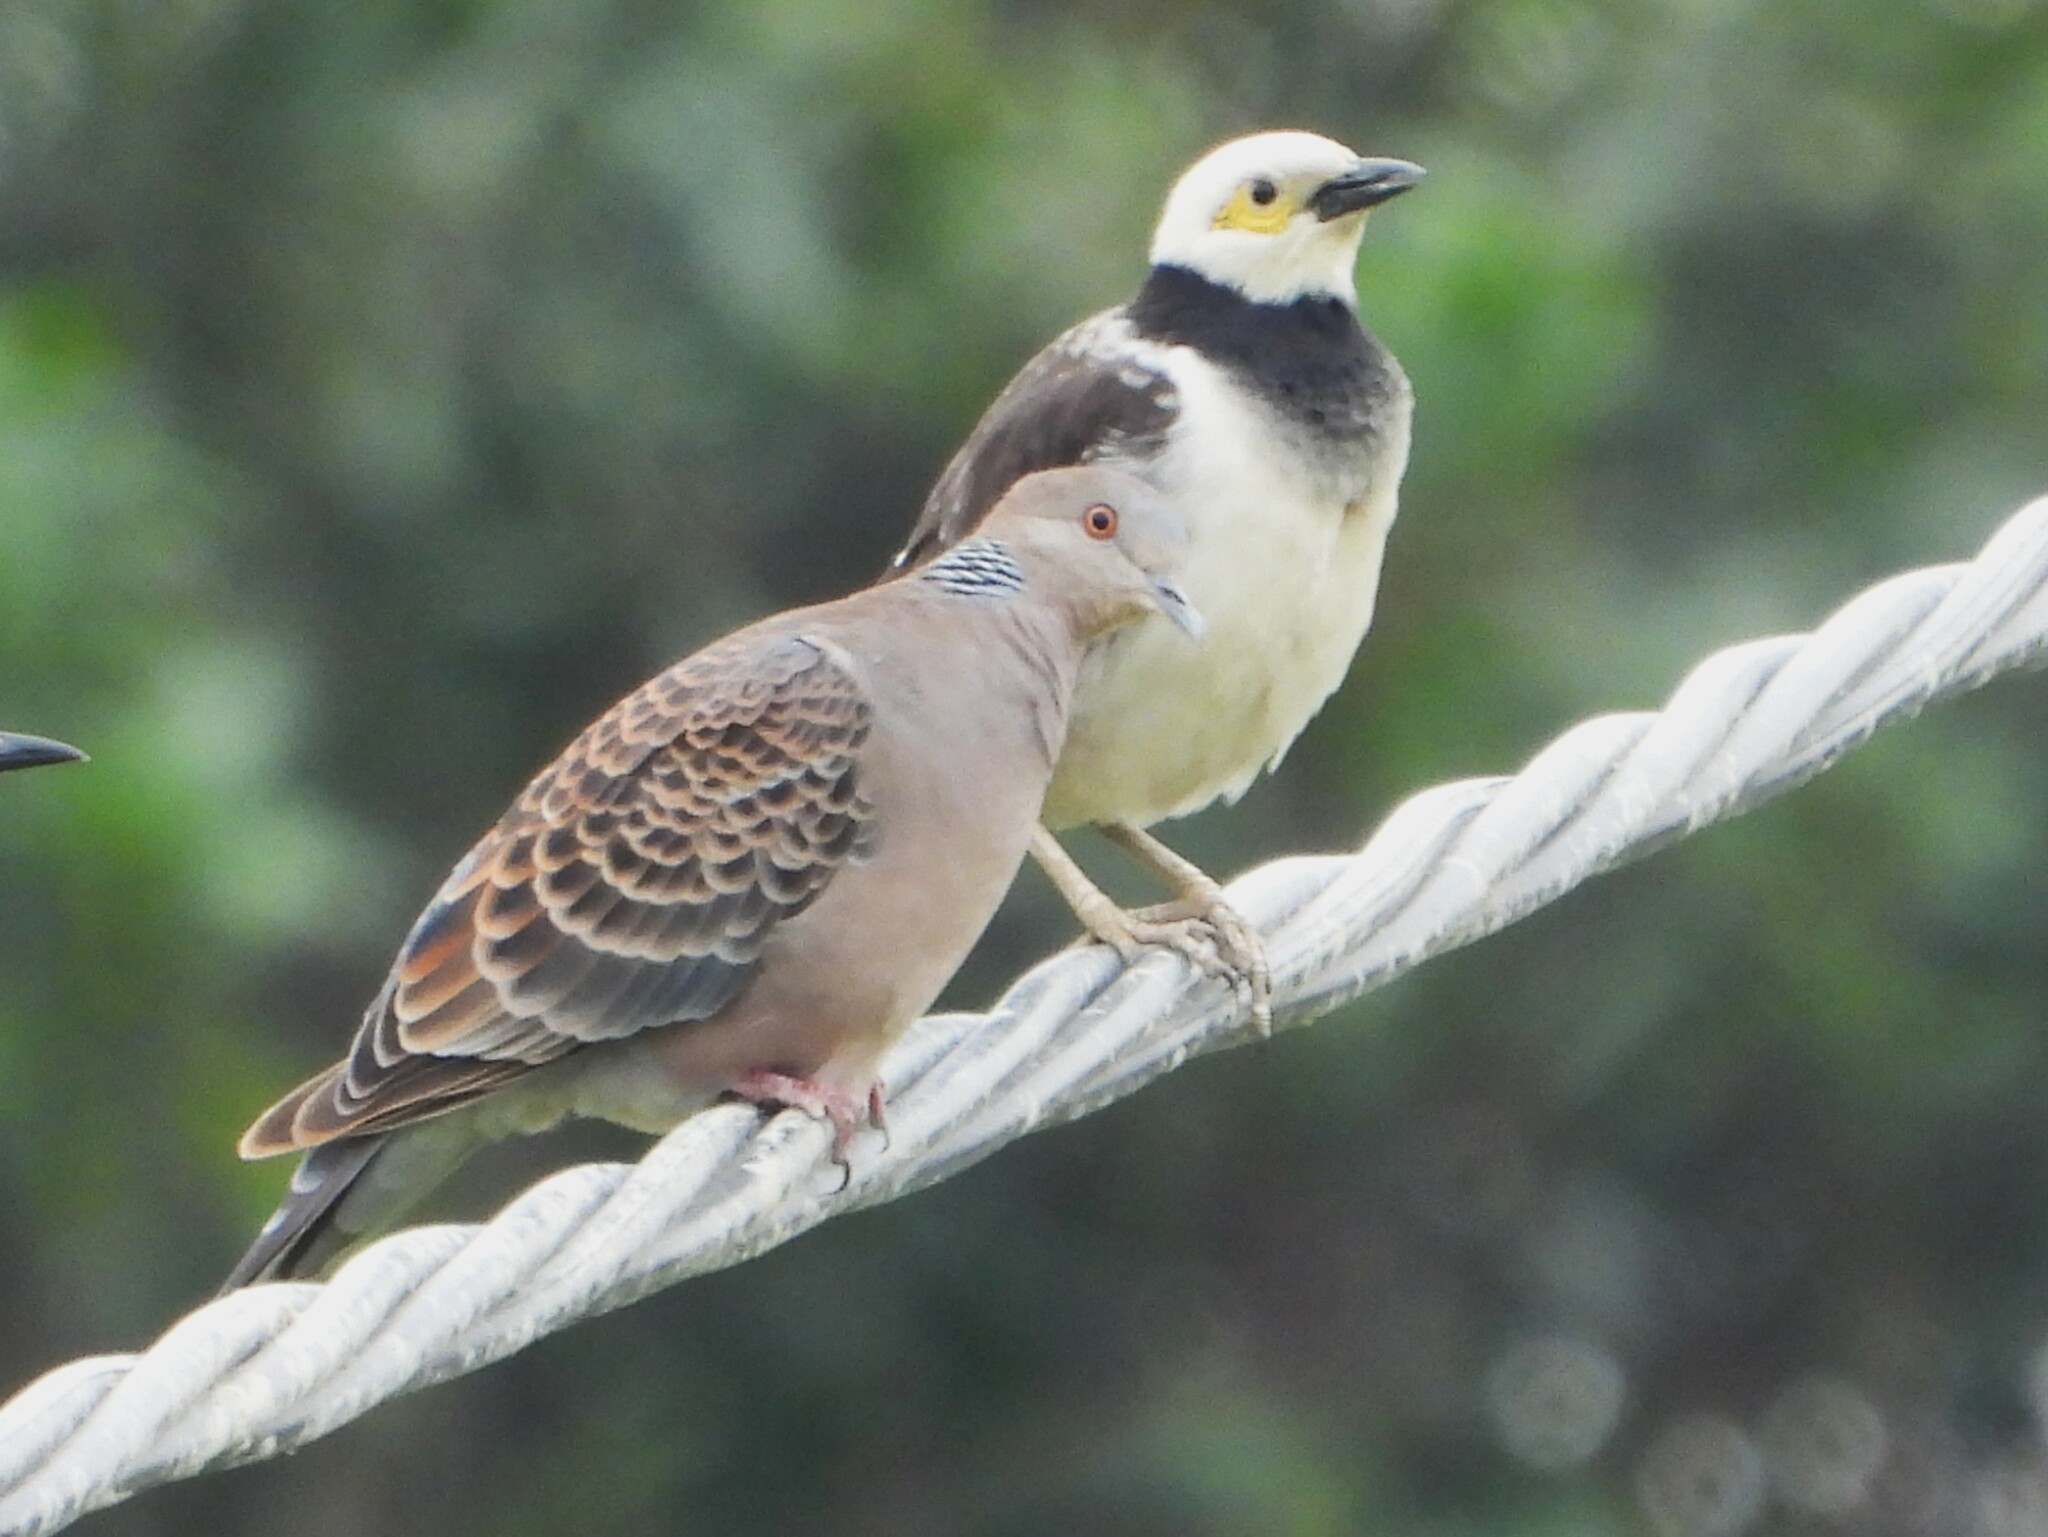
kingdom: Animalia
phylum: Chordata
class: Aves
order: Columbiformes
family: Columbidae
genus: Streptopelia
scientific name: Streptopelia orientalis
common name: Oriental turtle dove
